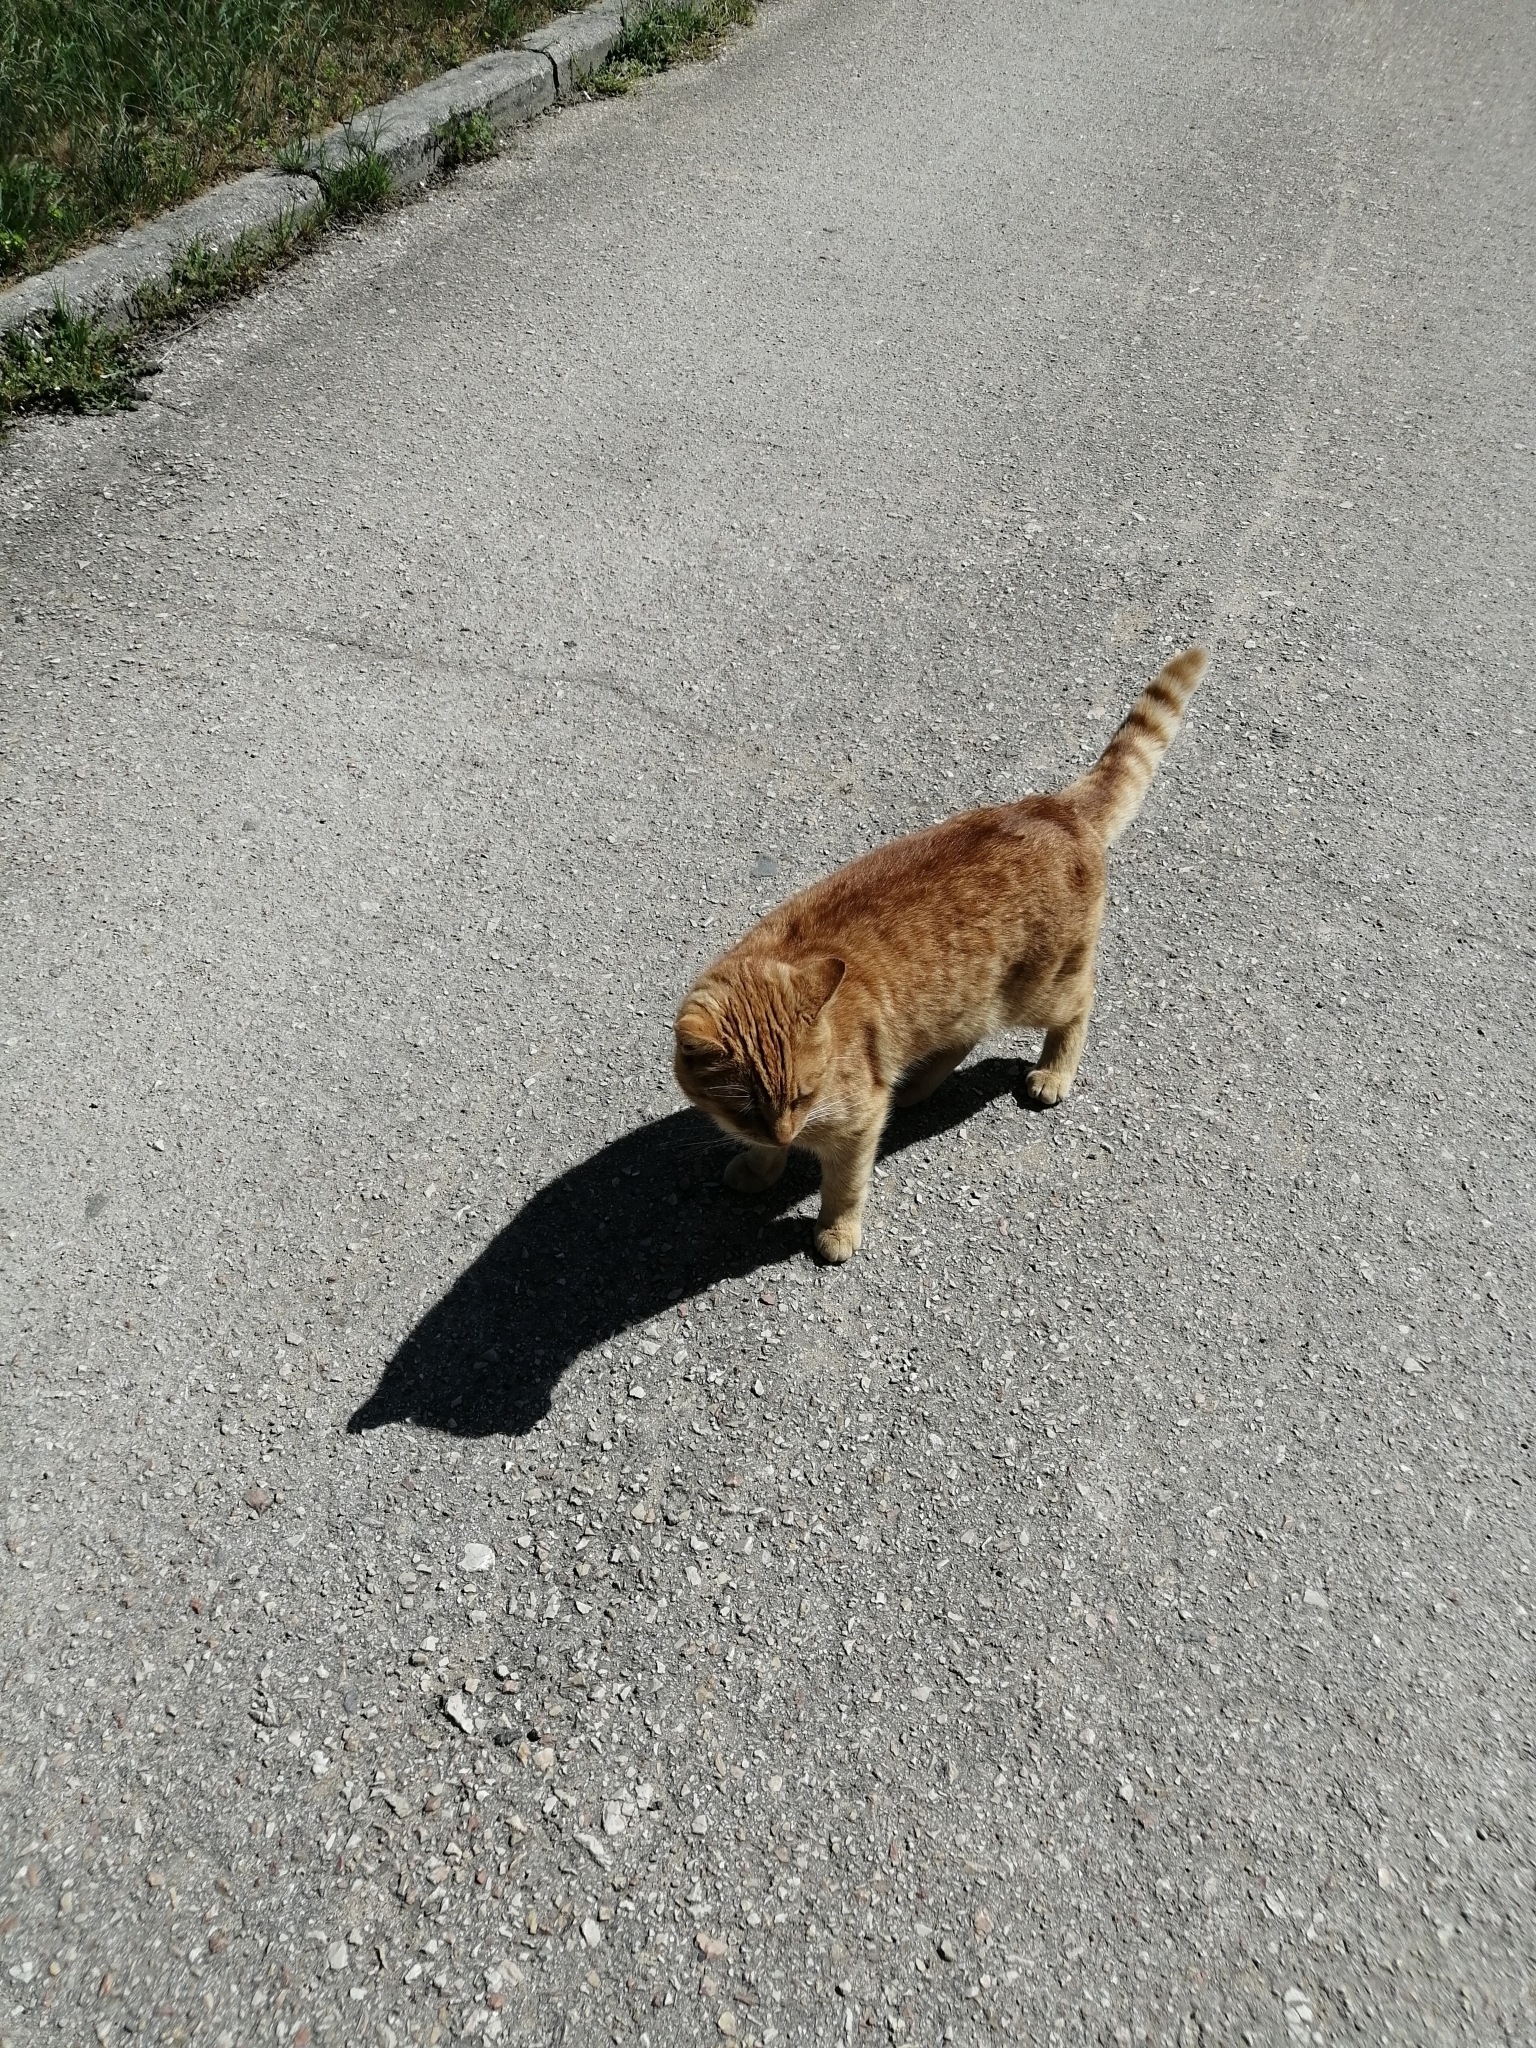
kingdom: Animalia
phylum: Chordata
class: Mammalia
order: Carnivora
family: Felidae
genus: Felis
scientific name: Felis catus
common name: Domestic cat
